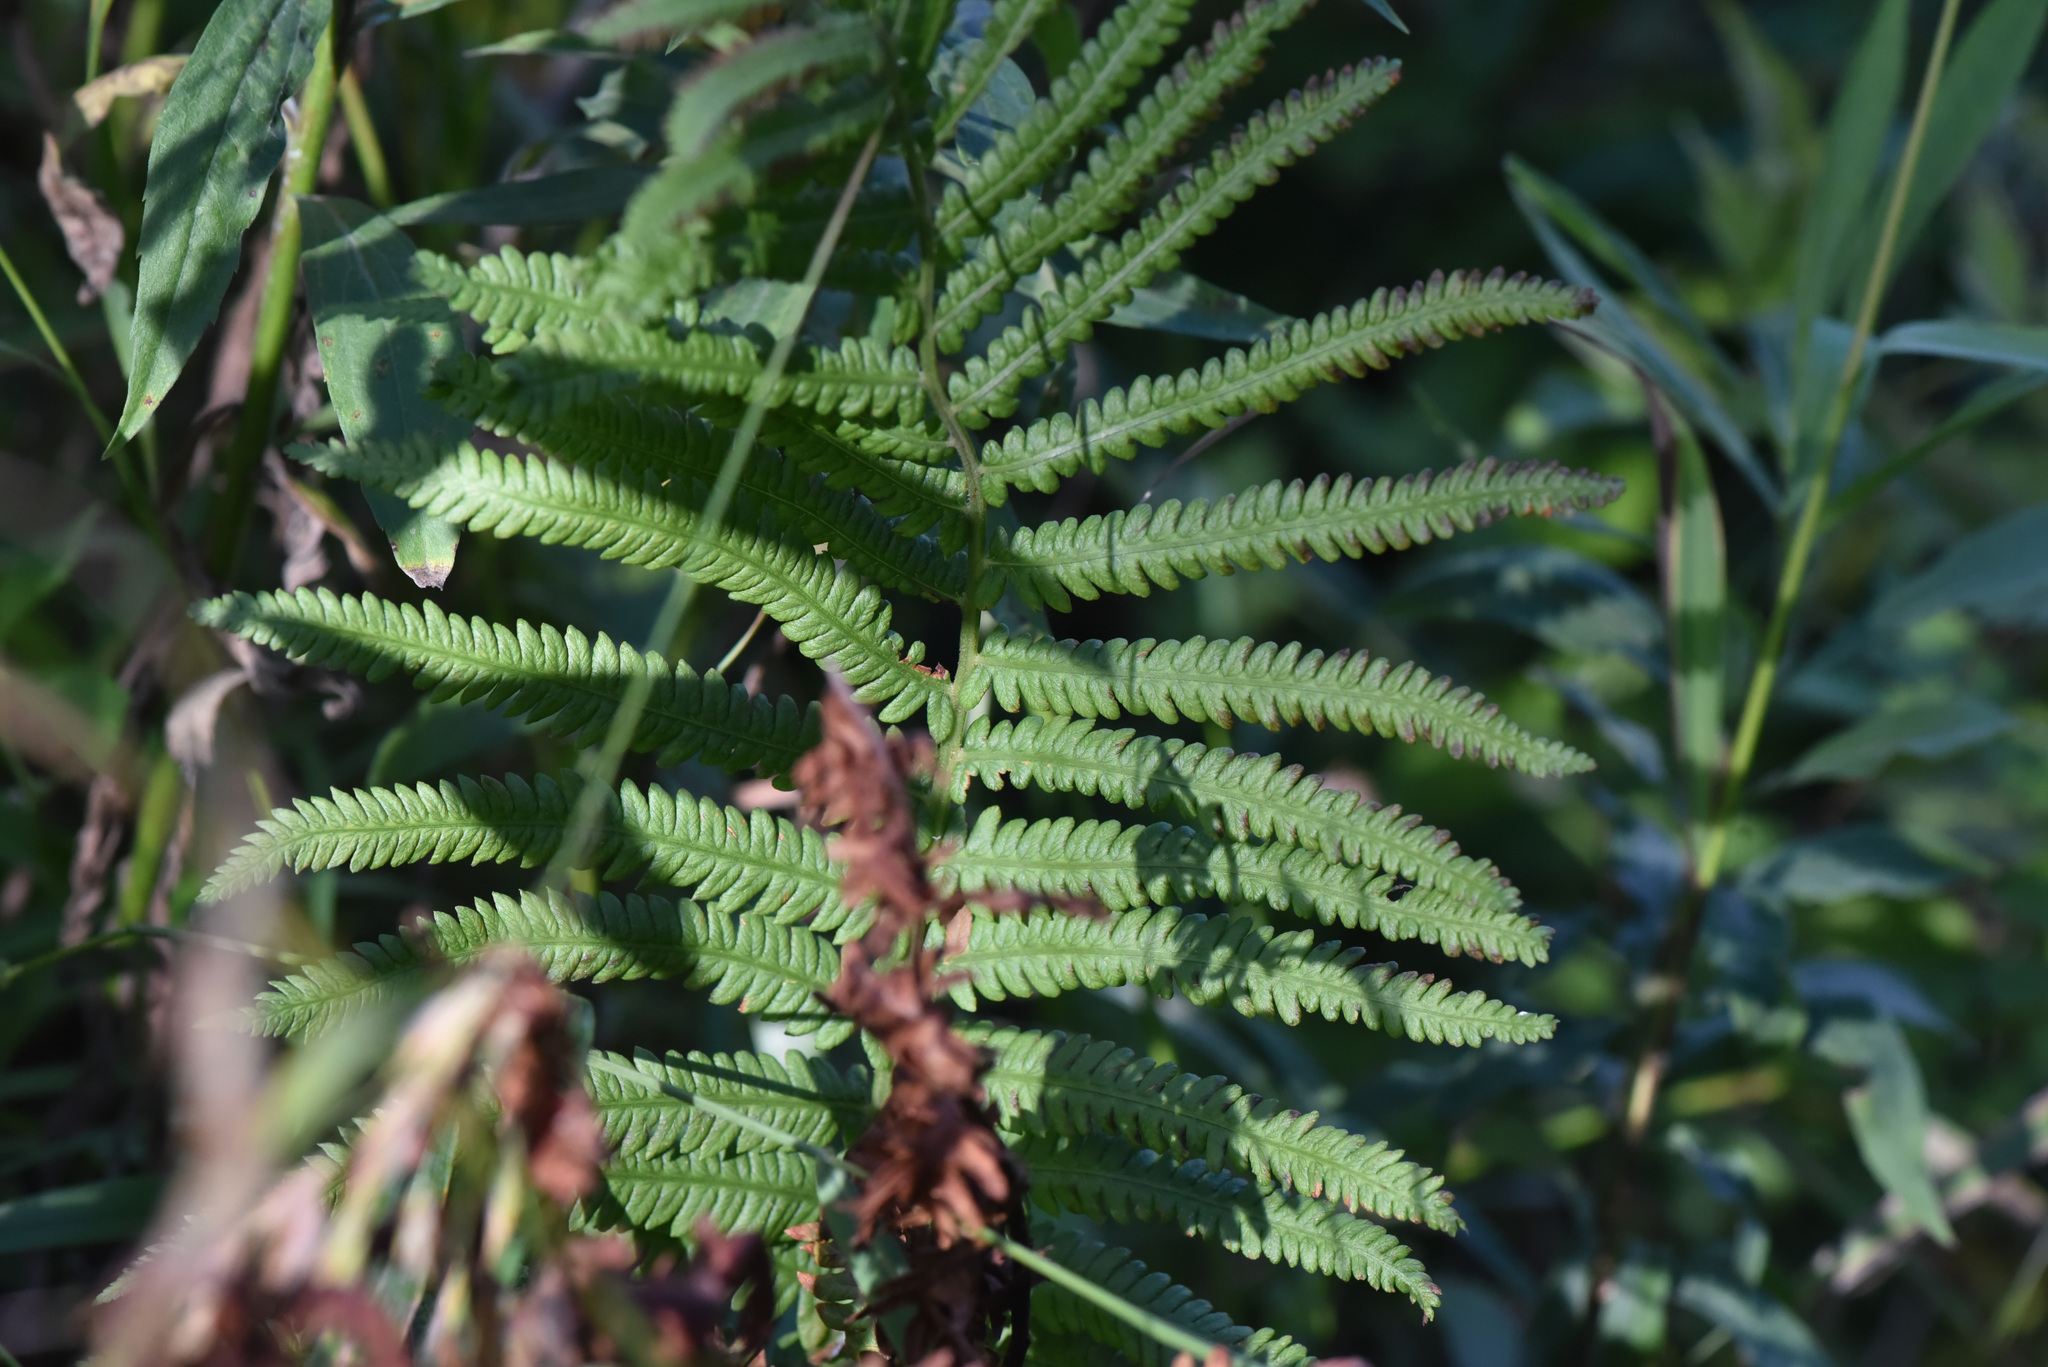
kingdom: Plantae
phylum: Tracheophyta
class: Polypodiopsida
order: Polypodiales
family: Onocleaceae
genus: Matteuccia
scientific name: Matteuccia struthiopteris
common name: Ostrich fern
